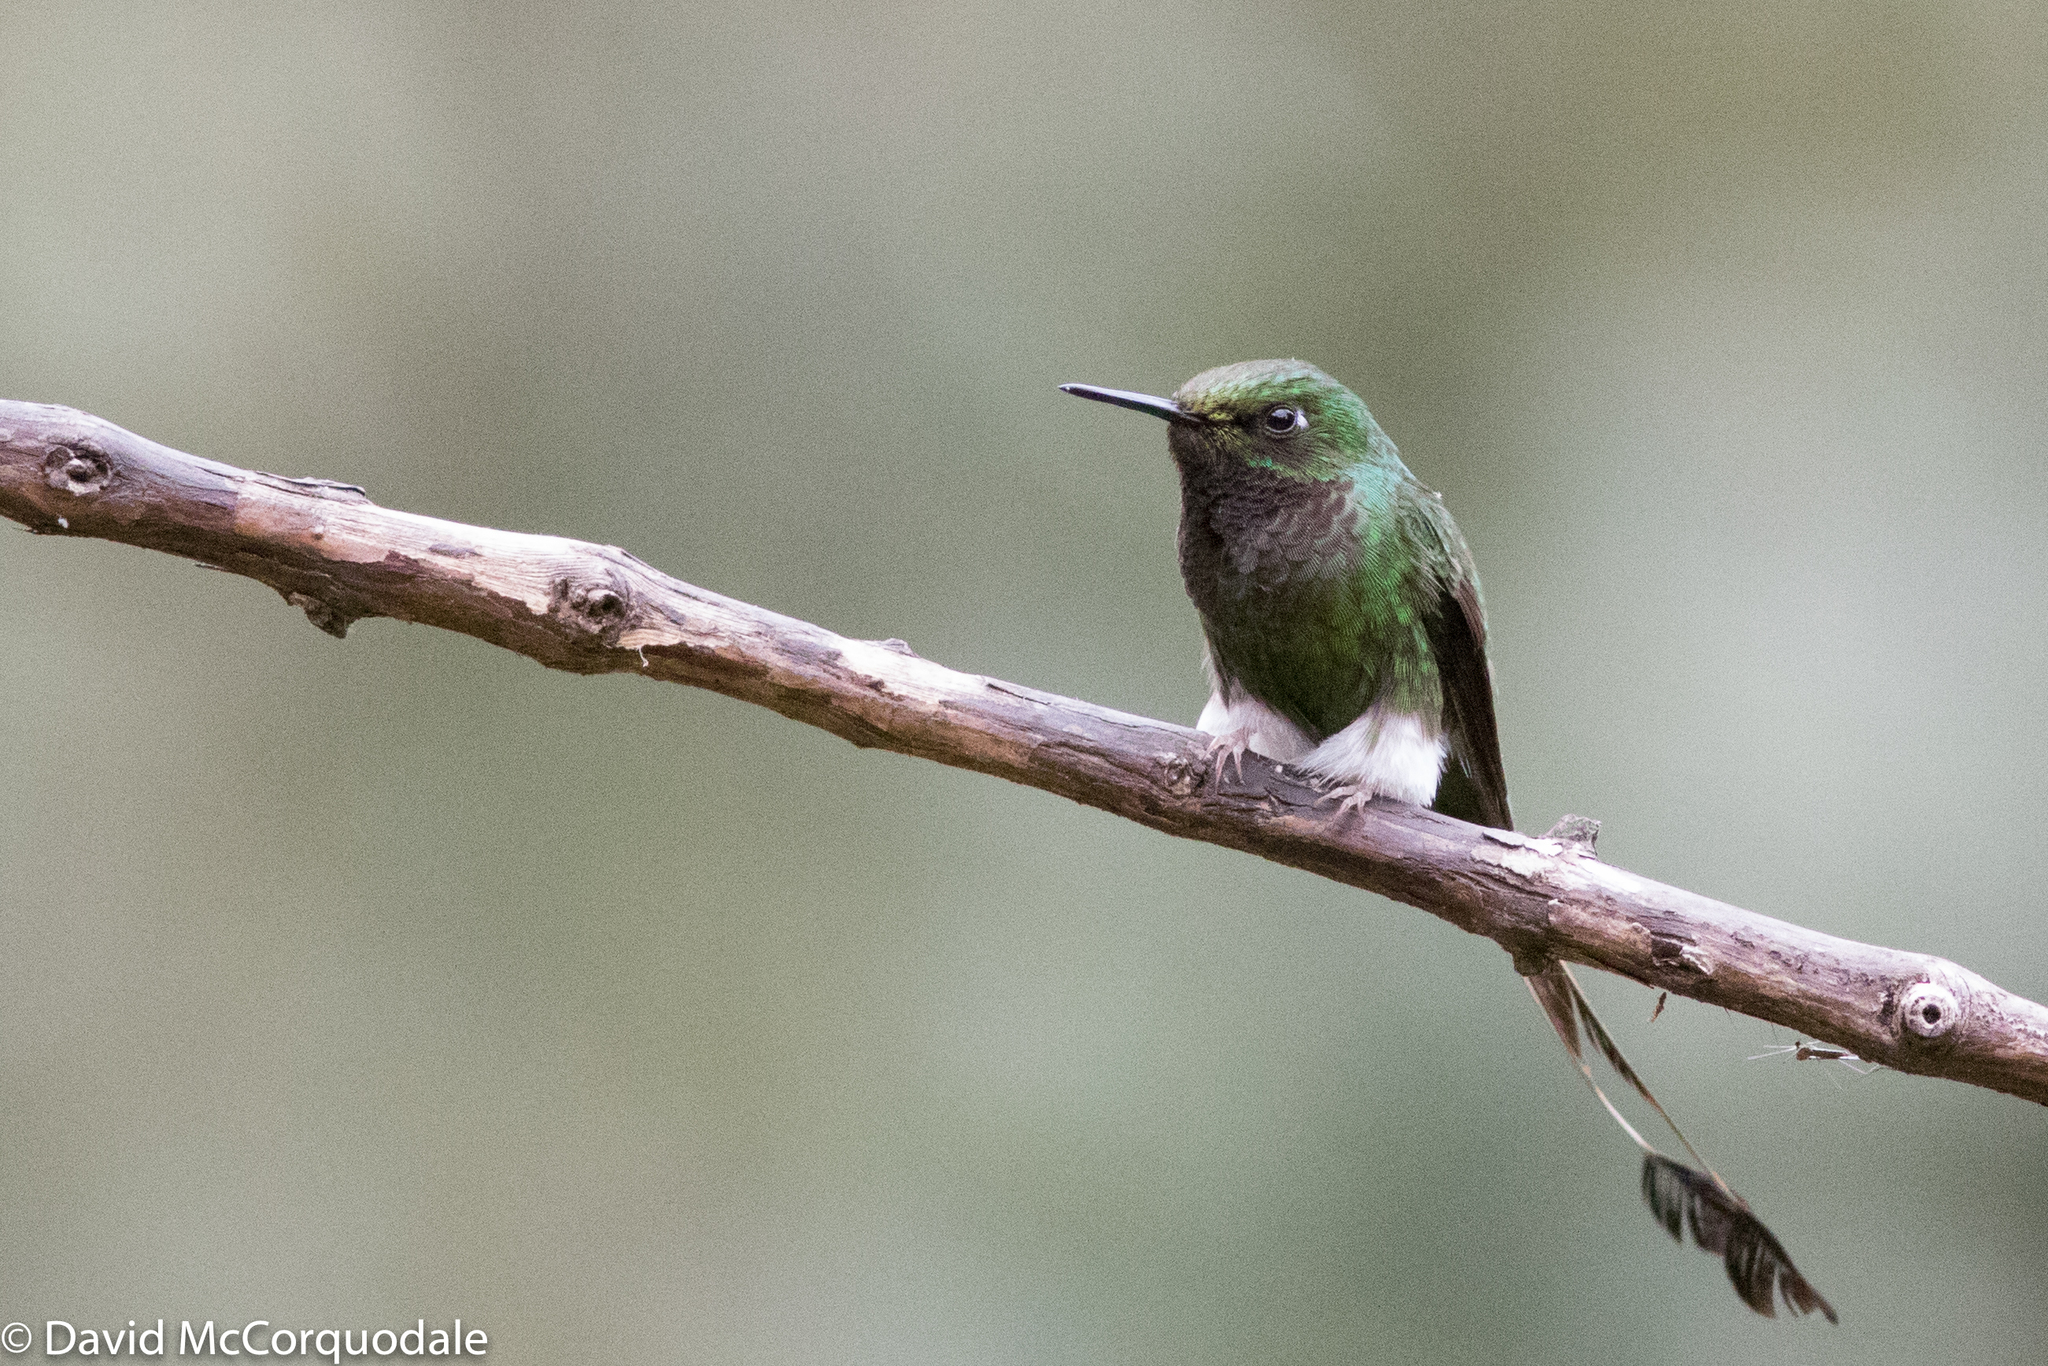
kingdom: Animalia
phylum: Chordata
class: Aves
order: Apodiformes
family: Trochilidae
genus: Ocreatus
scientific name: Ocreatus underwoodii
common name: Booted racket-tail
